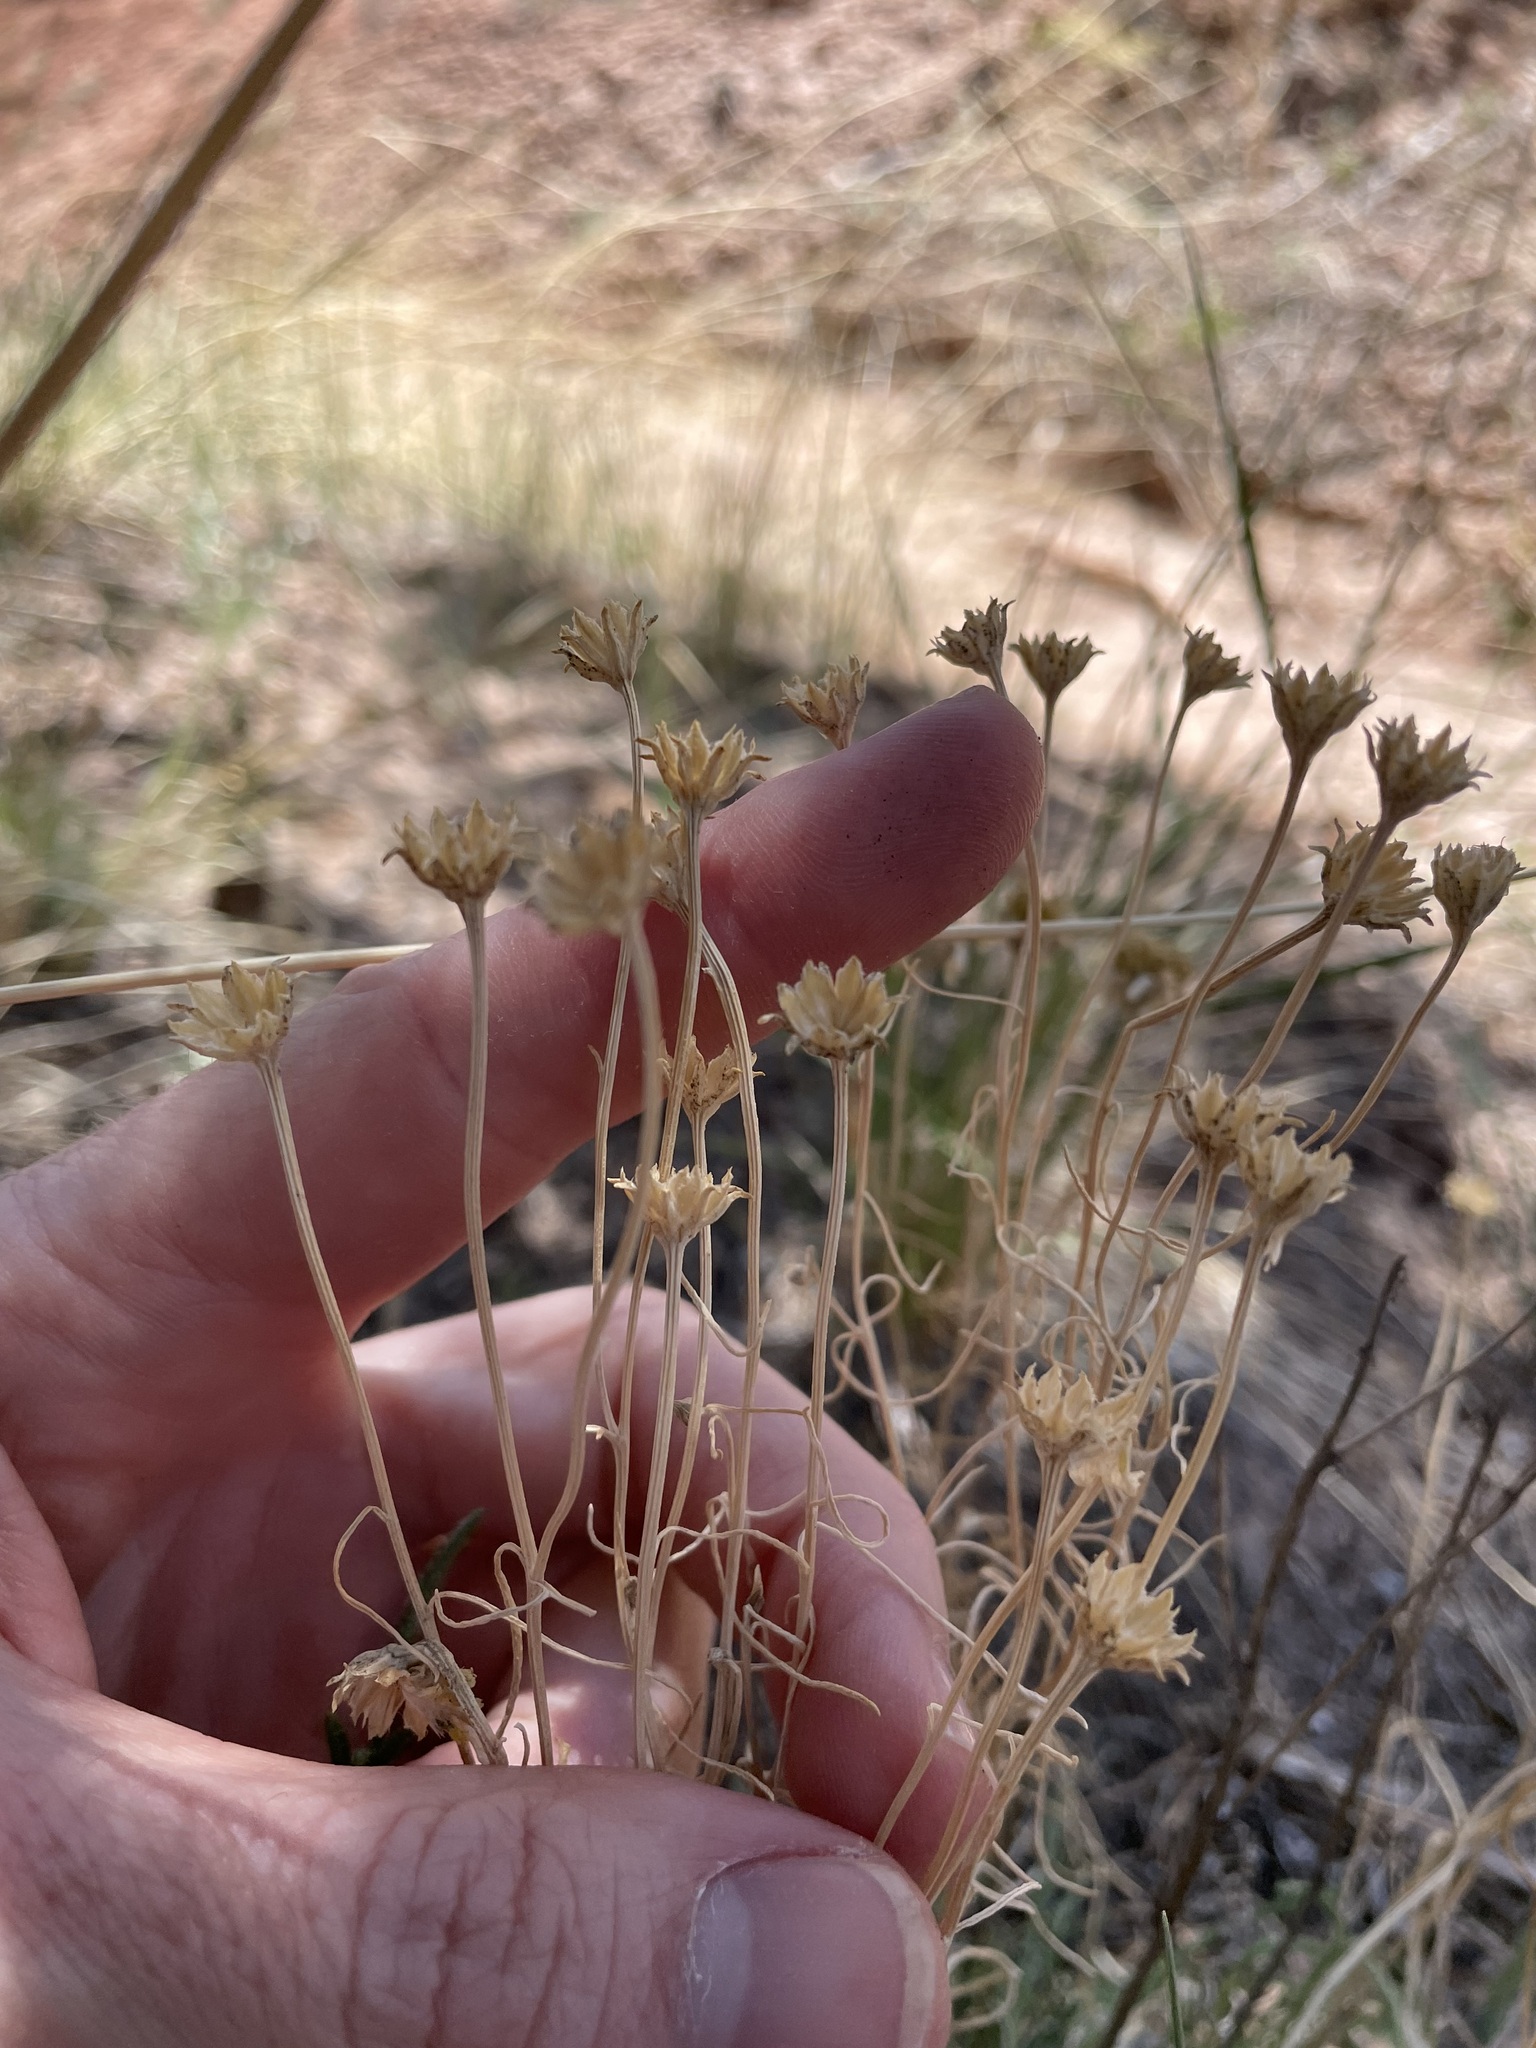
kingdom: Plantae
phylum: Tracheophyta
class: Magnoliopsida
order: Asterales
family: Asteraceae
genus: Hymenoxys
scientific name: Hymenoxys richardsonii
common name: Pingue rubberweed
